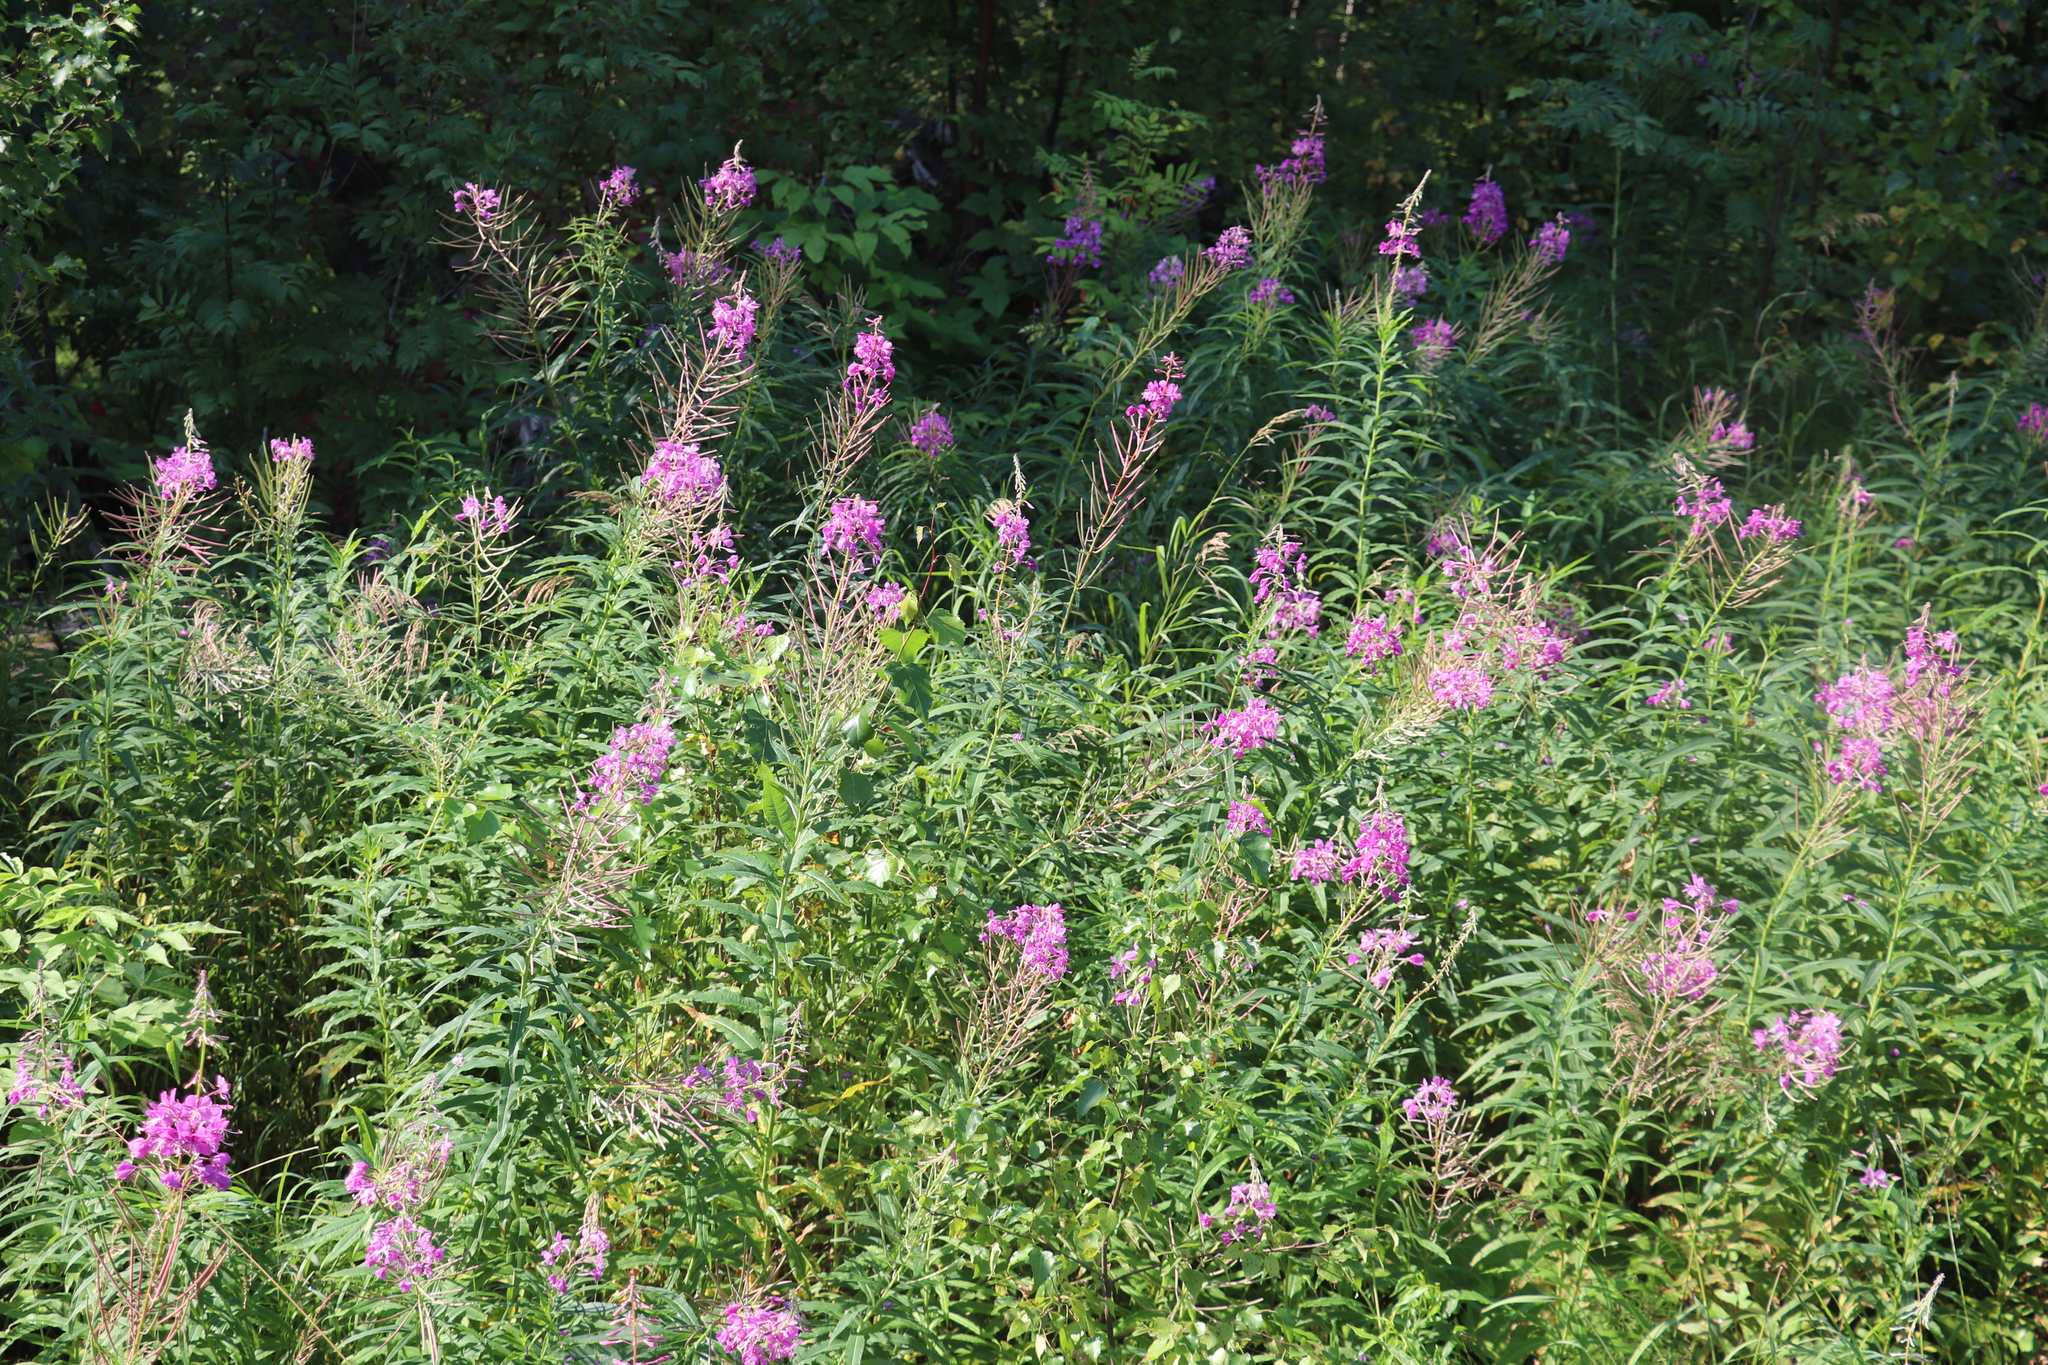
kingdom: Plantae
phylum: Tracheophyta
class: Magnoliopsida
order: Myrtales
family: Onagraceae
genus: Chamaenerion
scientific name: Chamaenerion angustifolium
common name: Fireweed
